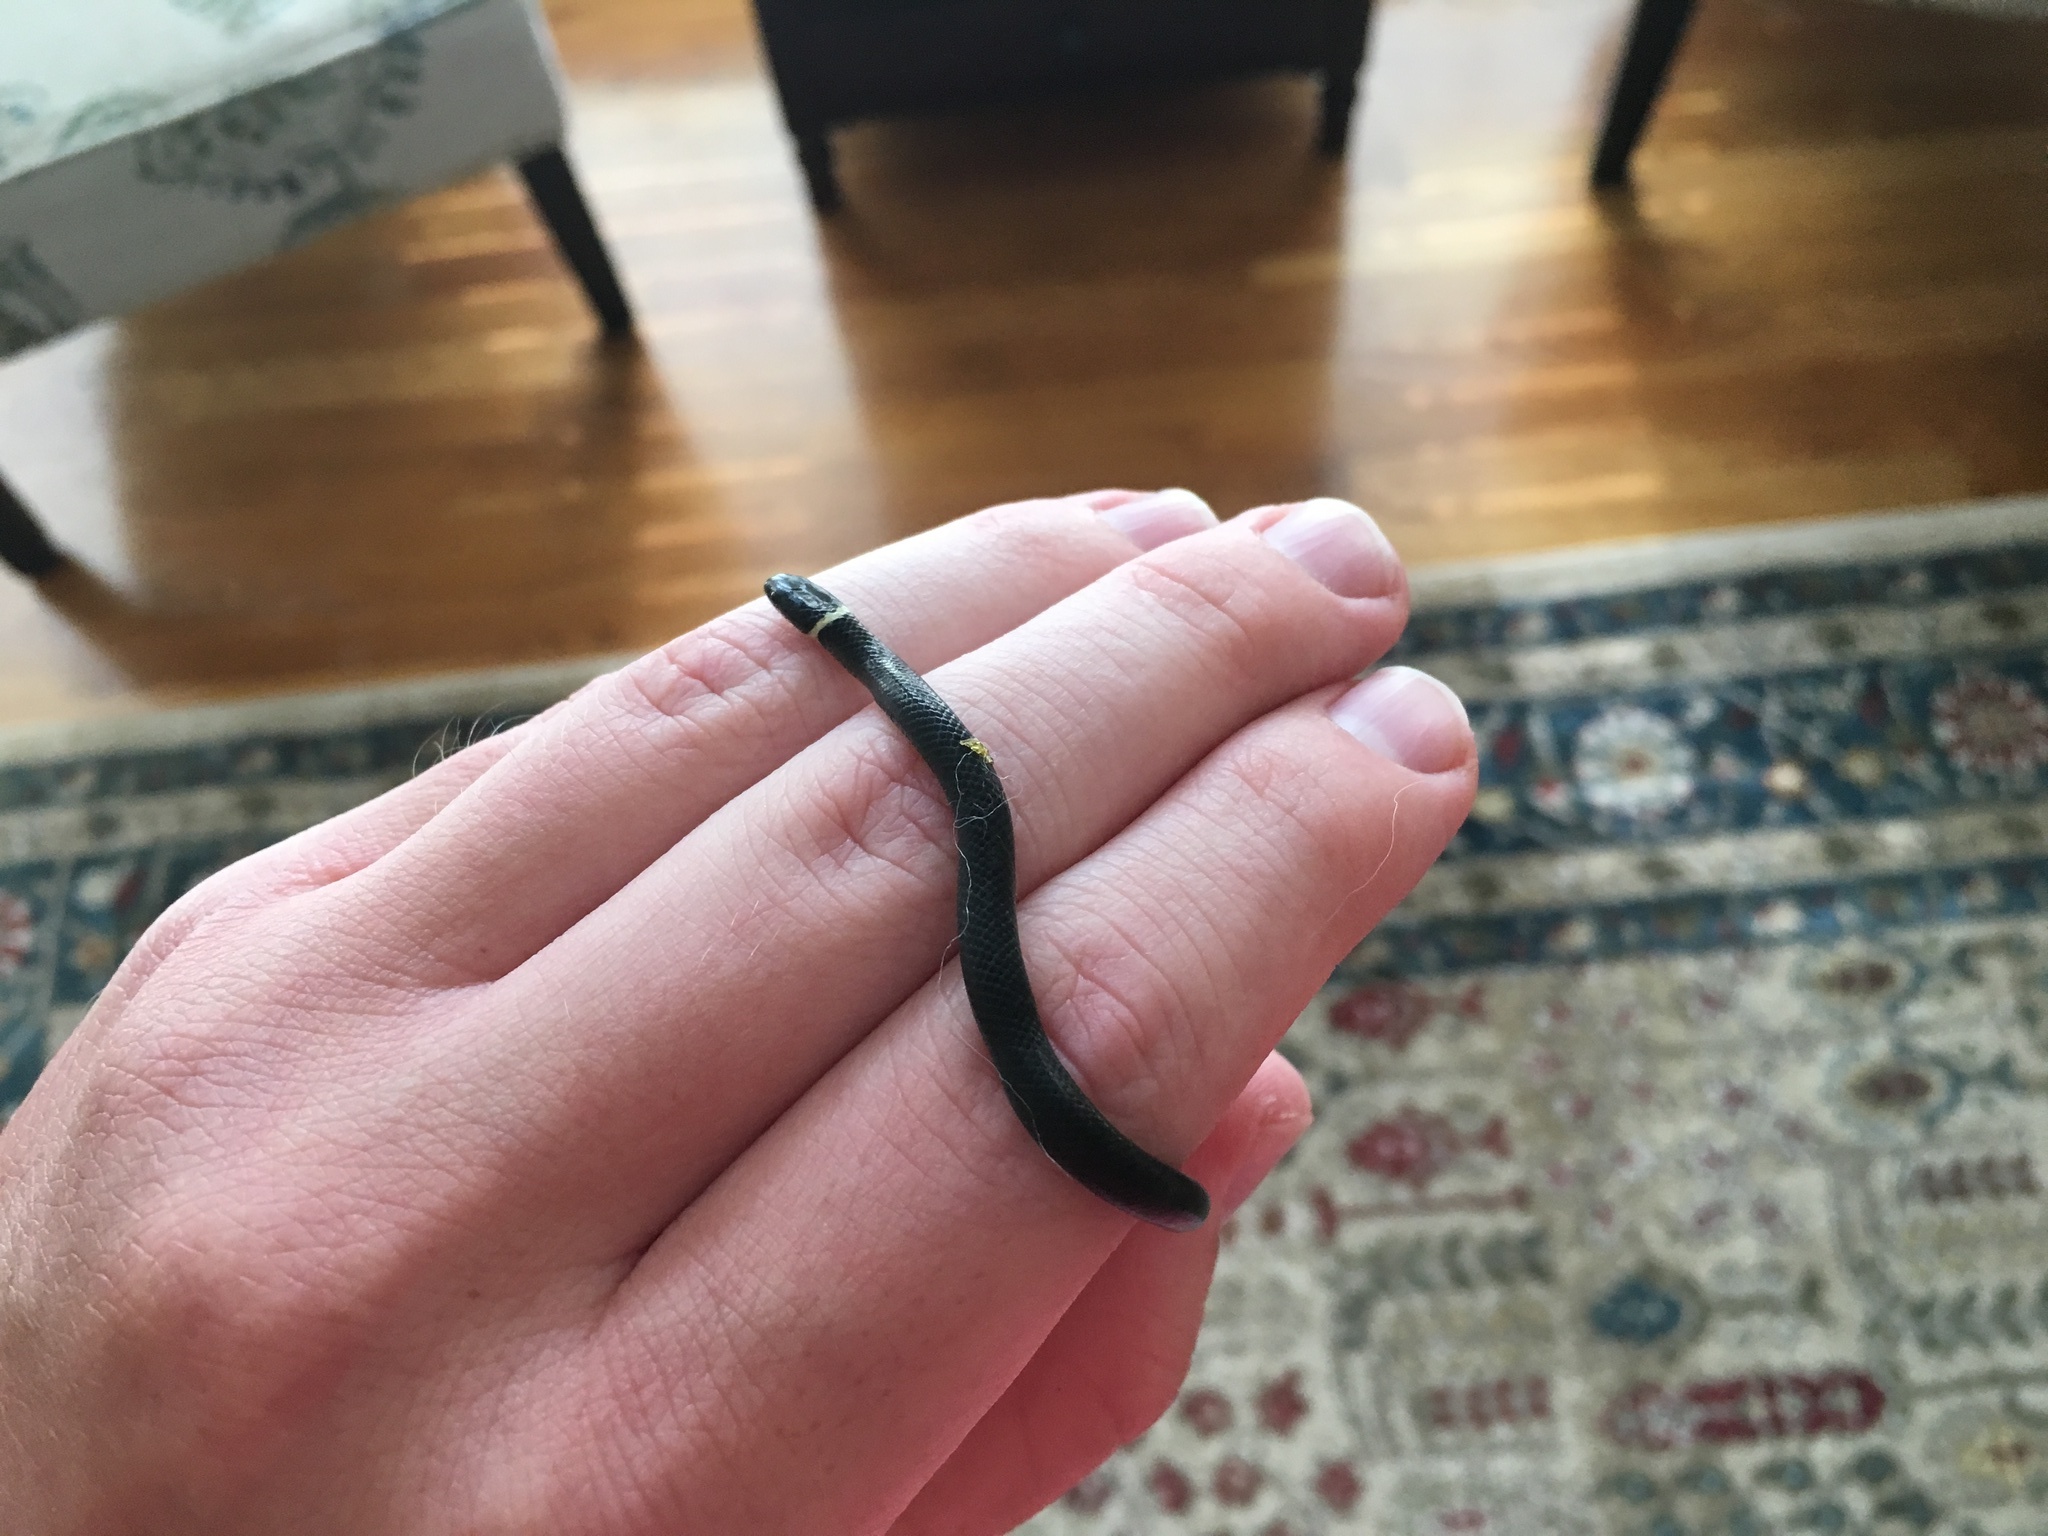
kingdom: Animalia
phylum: Chordata
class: Squamata
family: Colubridae
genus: Diadophis
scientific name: Diadophis punctatus
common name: Ringneck snake
